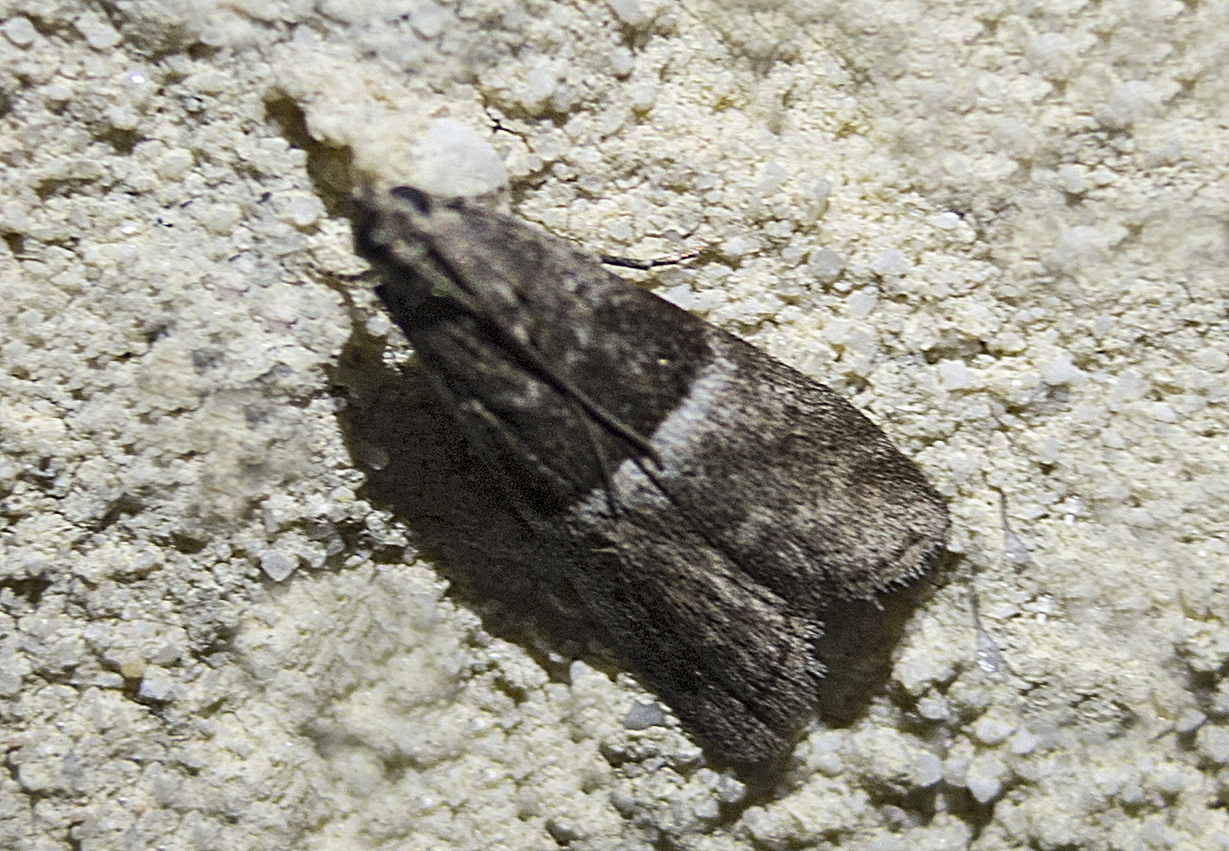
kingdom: Animalia
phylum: Arthropoda
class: Insecta
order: Lepidoptera
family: Pyralidae
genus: Elegia
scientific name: Elegia atrifasciella
